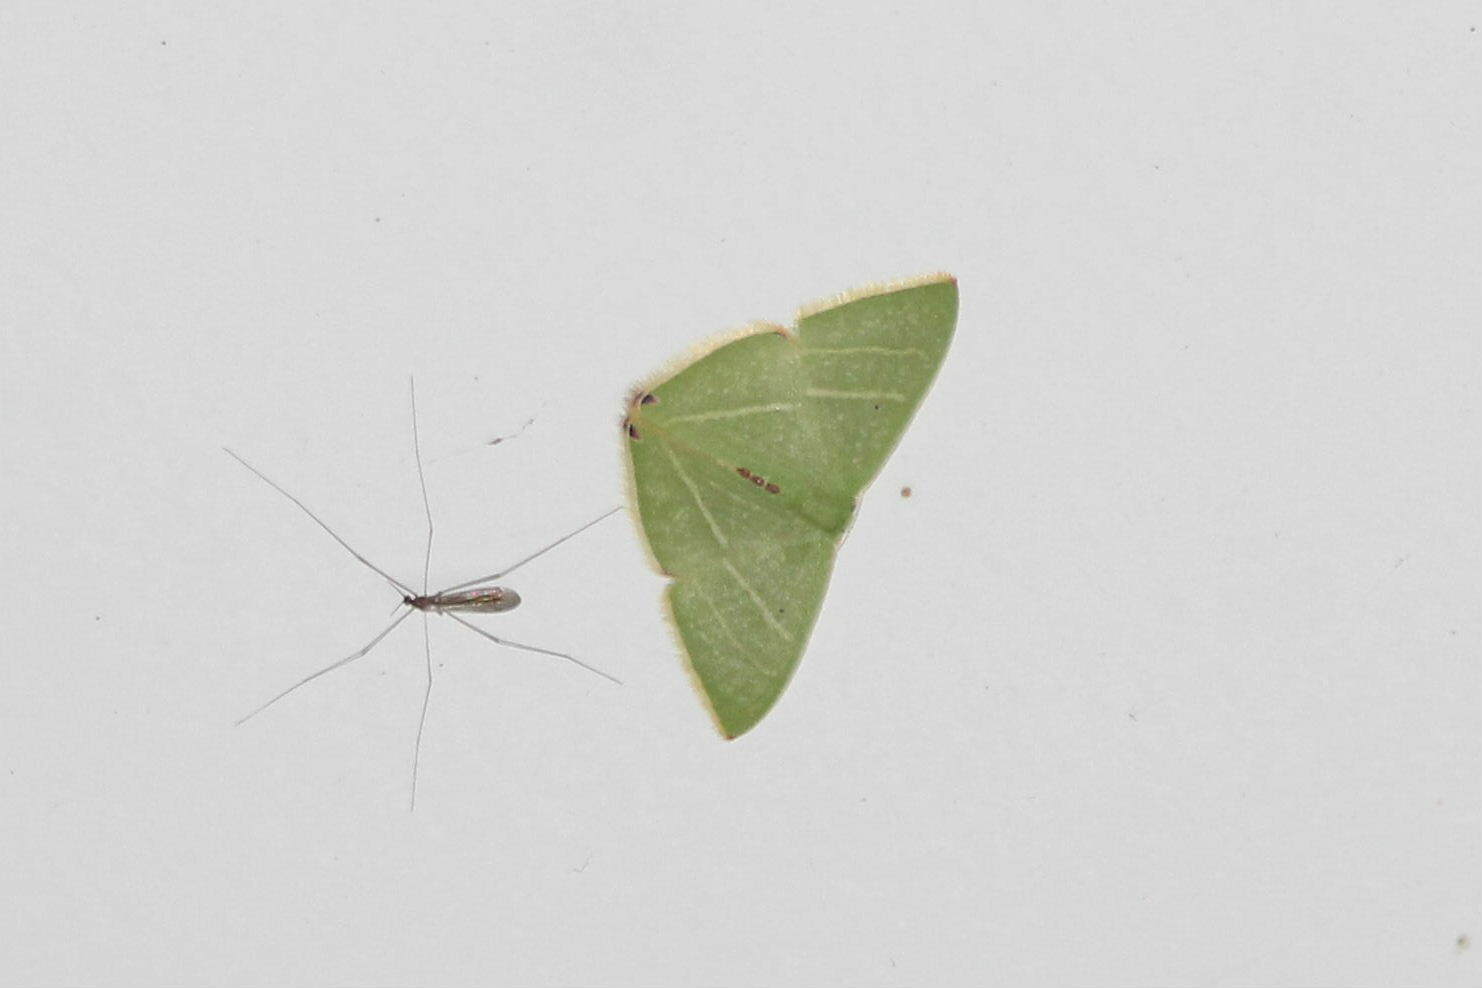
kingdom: Animalia
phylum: Arthropoda
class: Insecta
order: Lepidoptera
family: Geometridae
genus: Urolitha
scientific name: Urolitha bipunctifera
